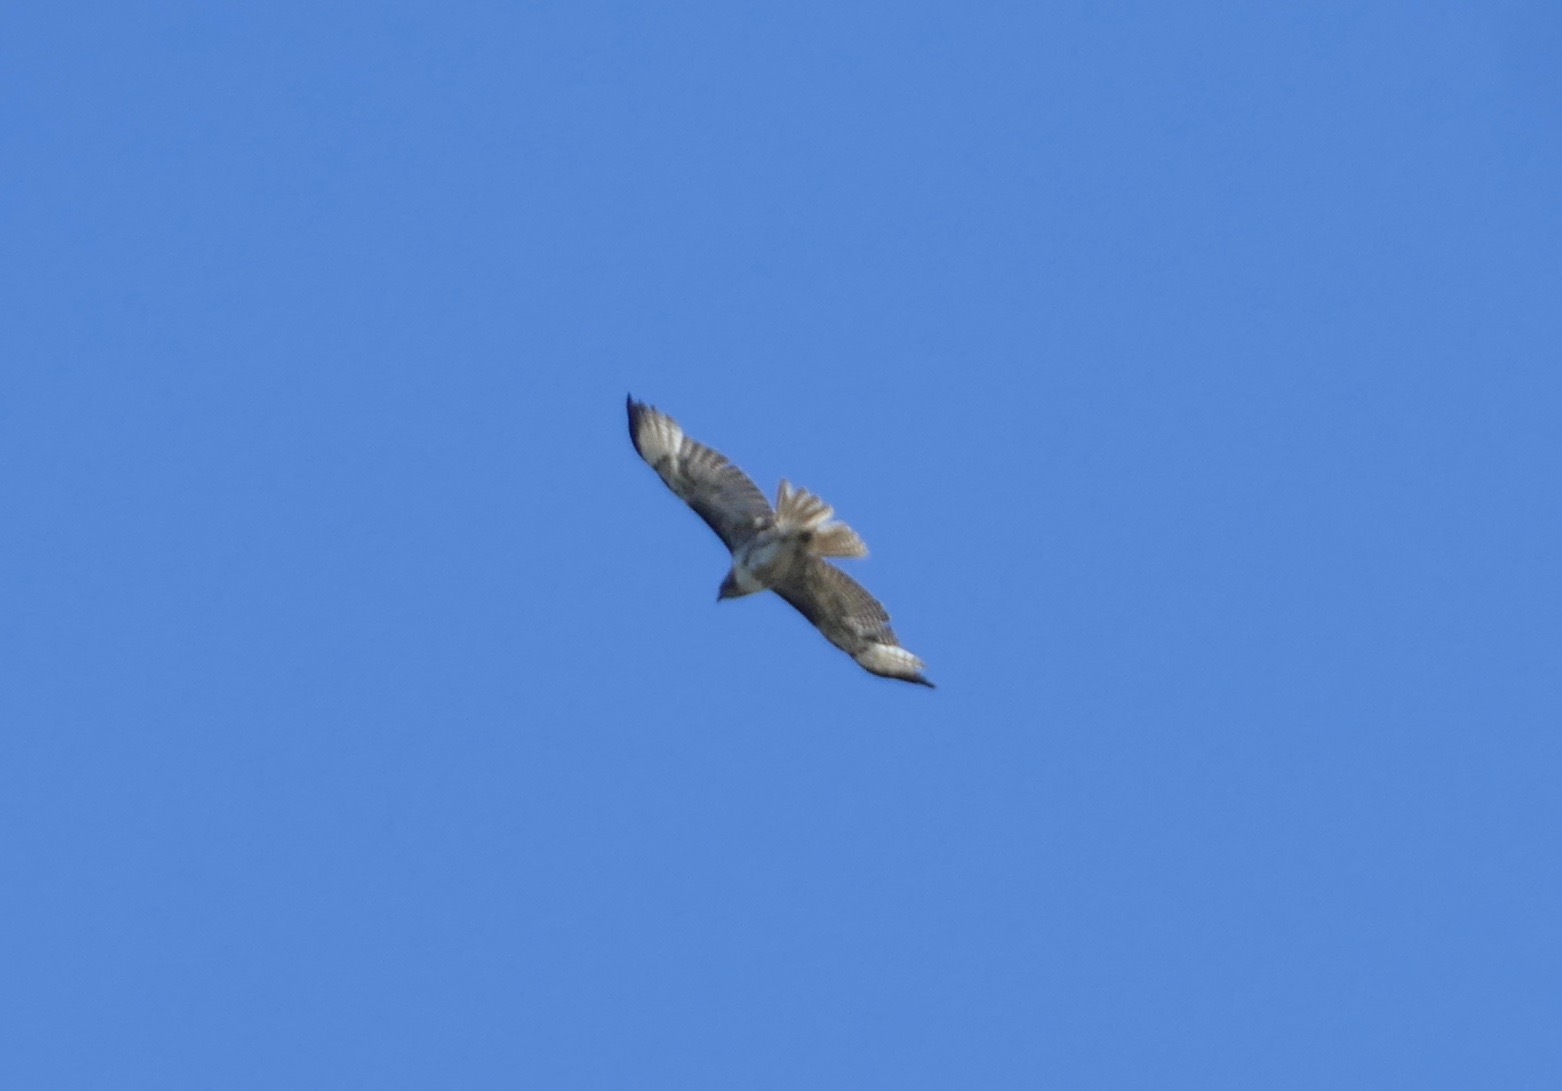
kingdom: Animalia
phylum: Chordata
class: Aves
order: Accipitriformes
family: Accipitridae
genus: Buteo
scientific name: Buteo jamaicensis
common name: Red-tailed hawk
